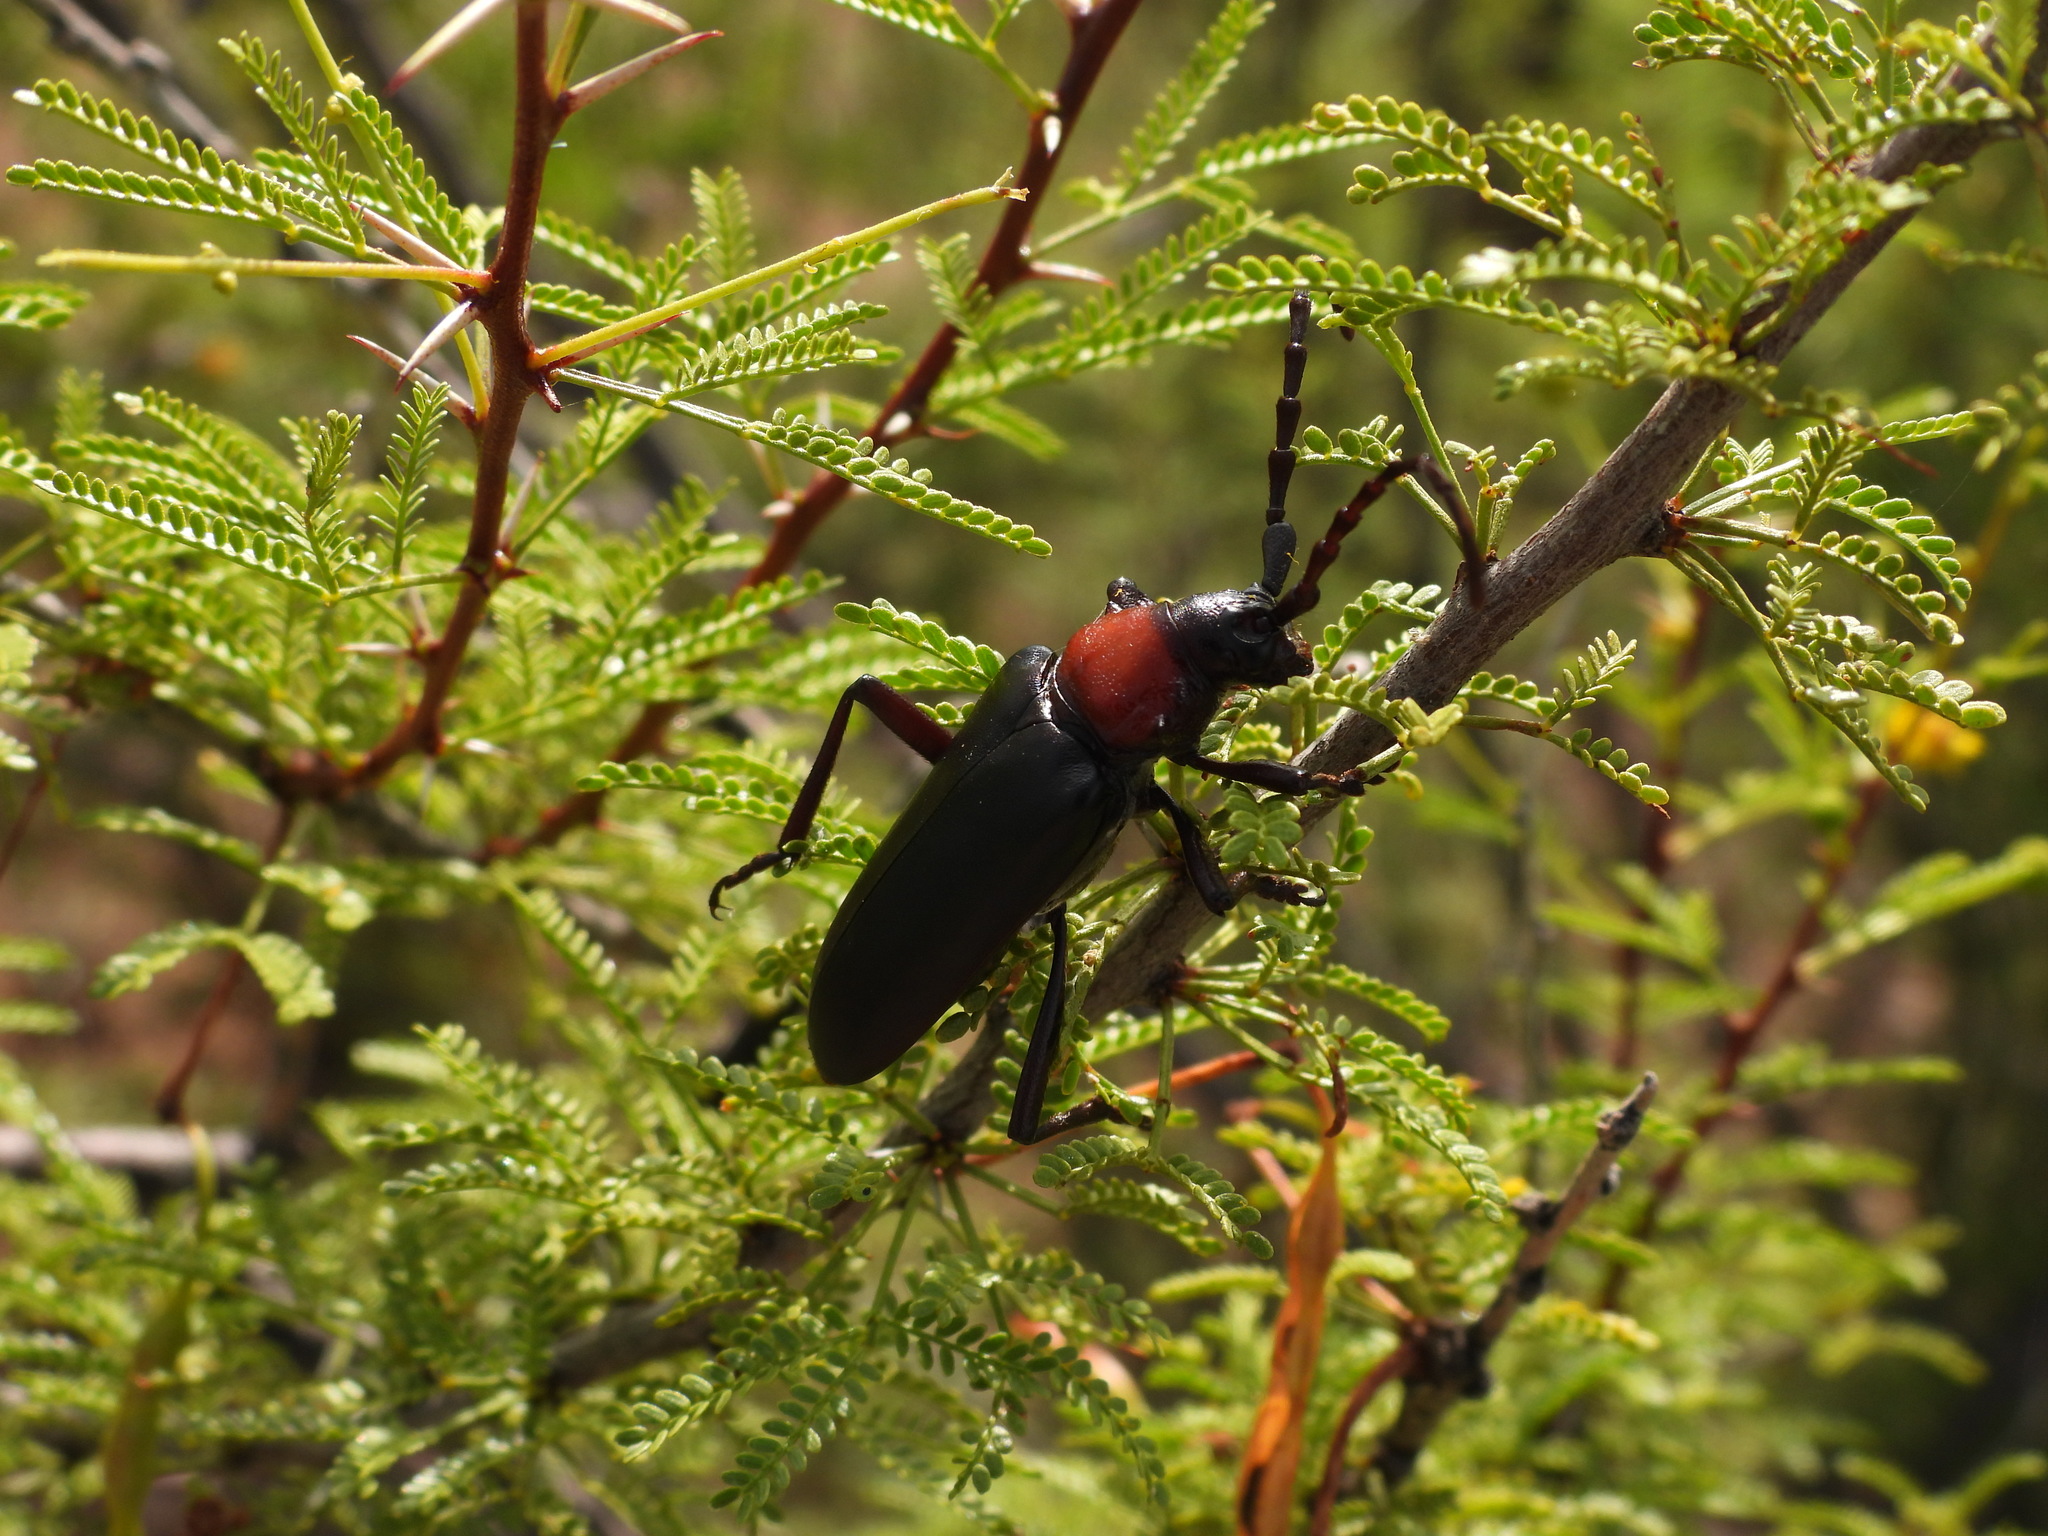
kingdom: Animalia
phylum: Arthropoda
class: Insecta
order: Coleoptera
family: Cerambycidae
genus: Stenaspis
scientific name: Stenaspis solitaria
